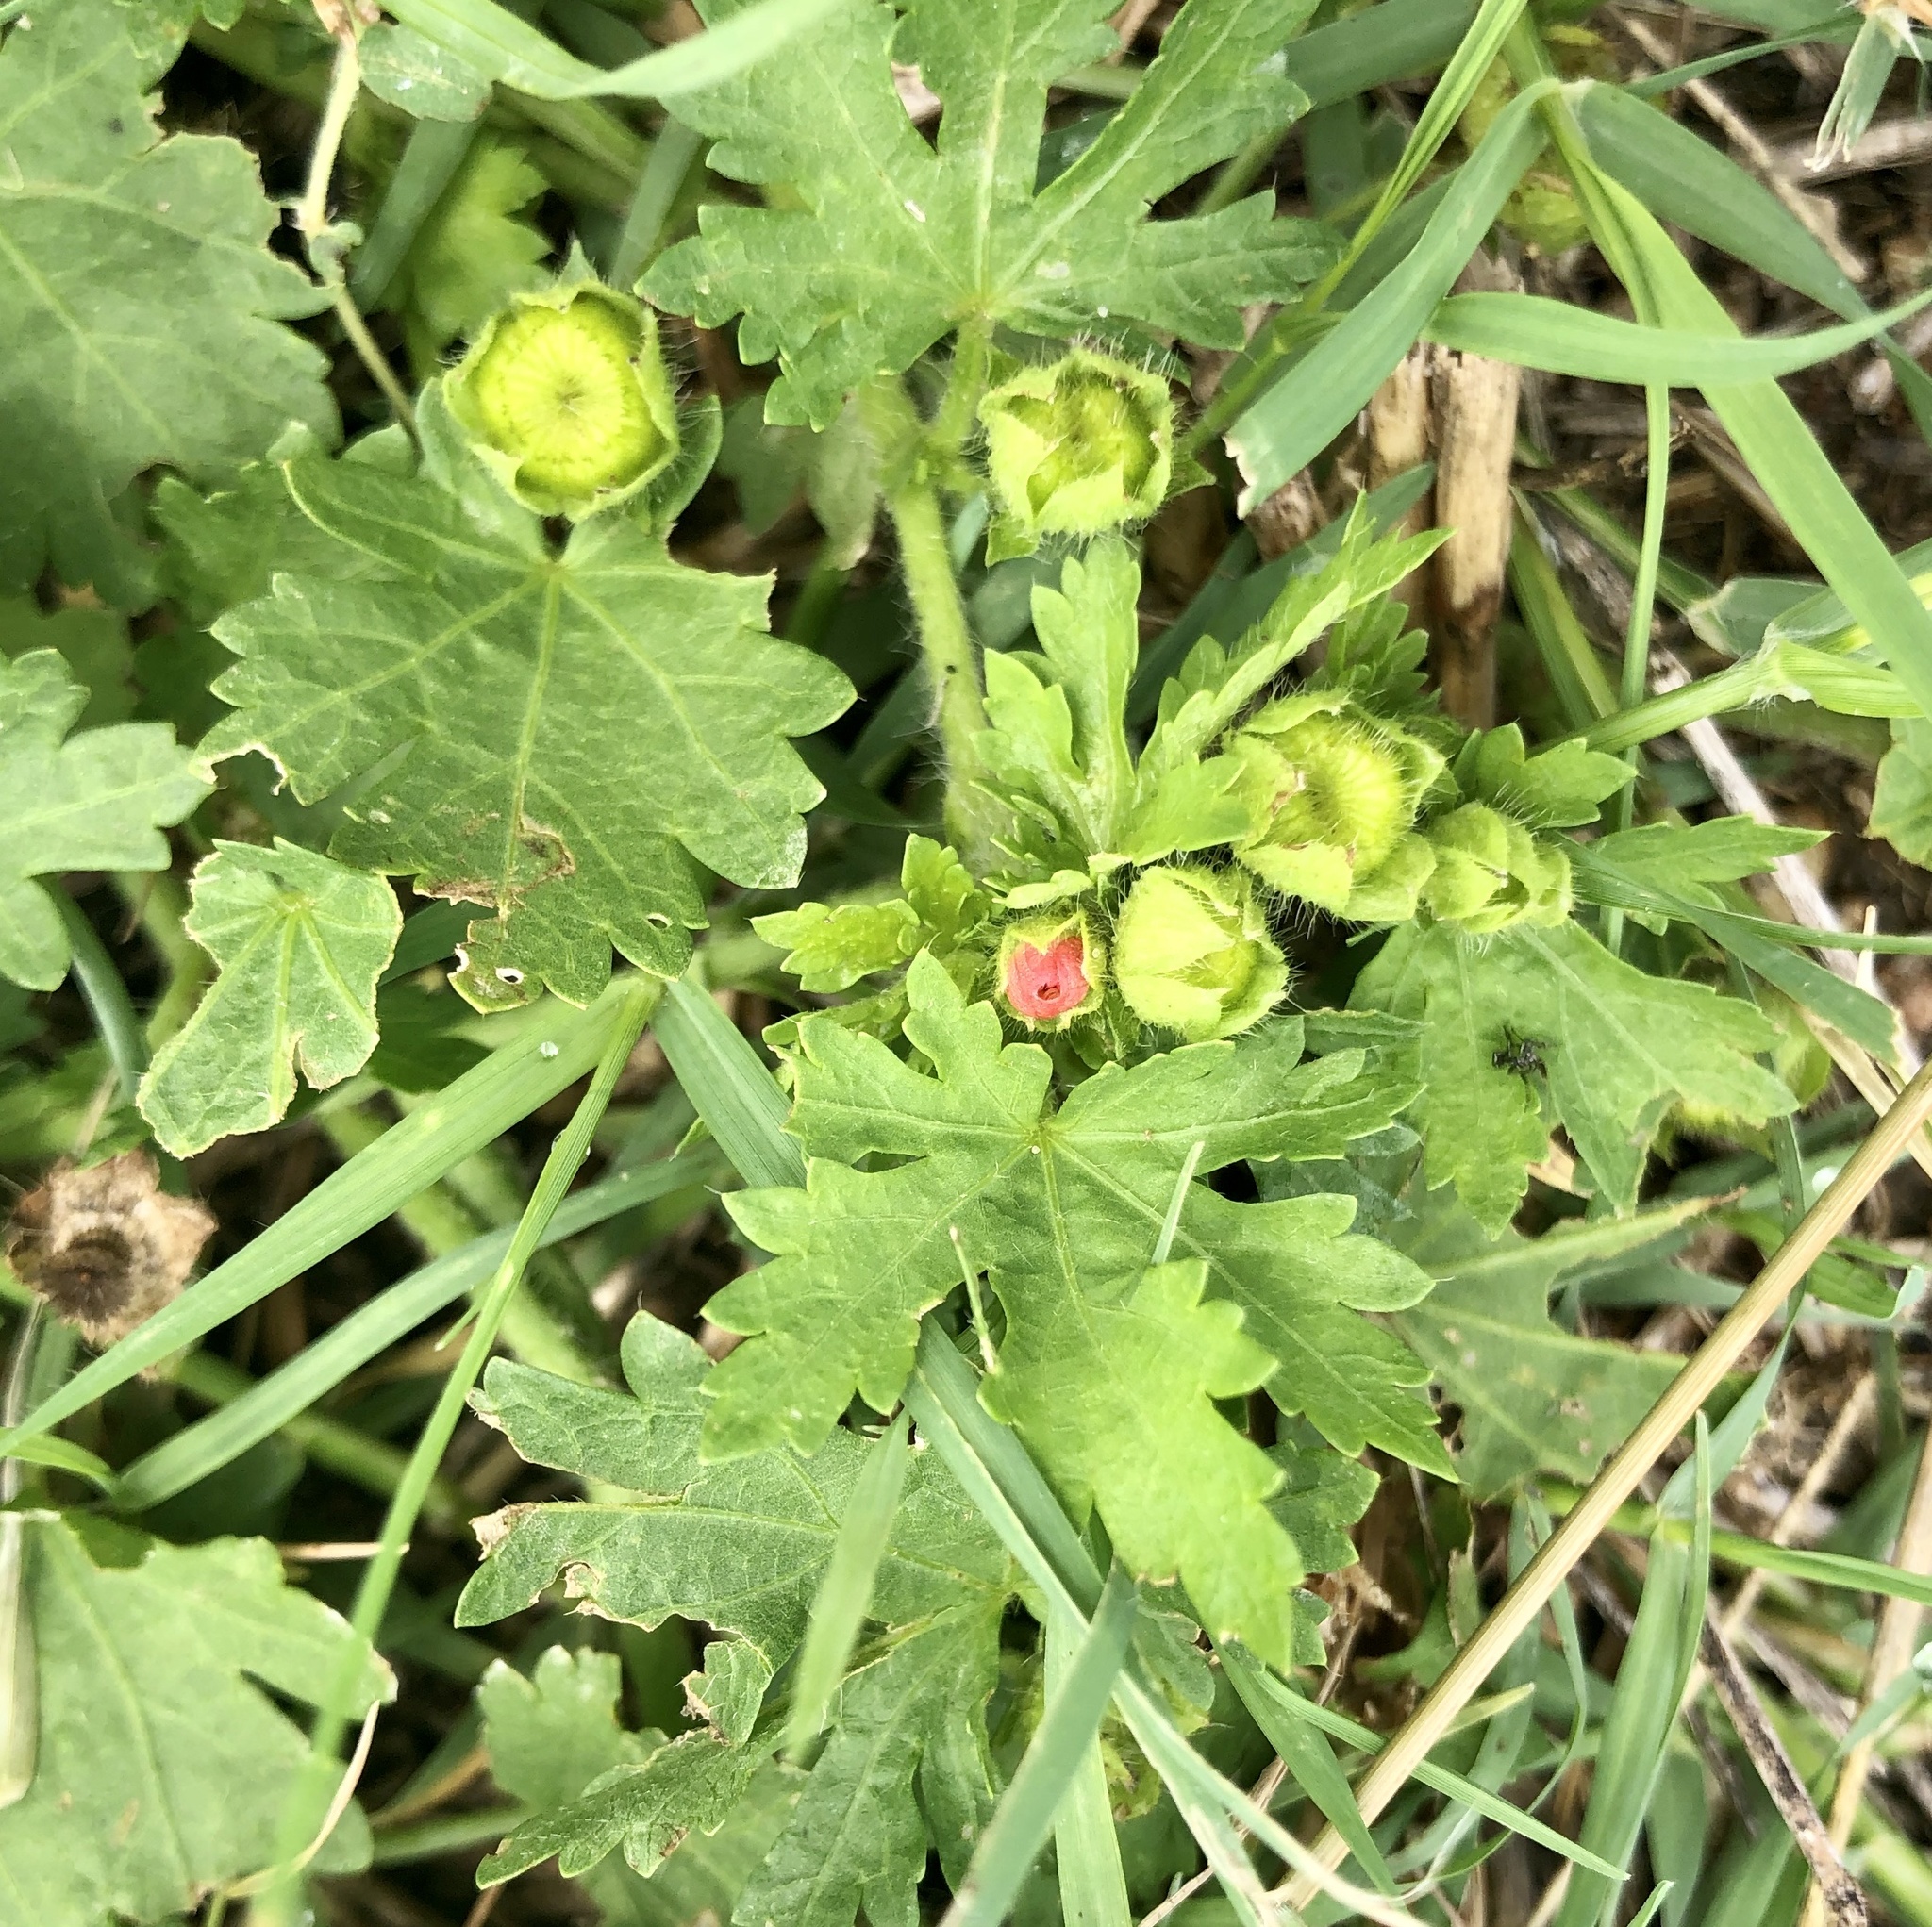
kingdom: Plantae
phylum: Tracheophyta
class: Magnoliopsida
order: Malvales
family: Malvaceae
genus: Modiola
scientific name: Modiola caroliniana
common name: Carolina bristlemallow
